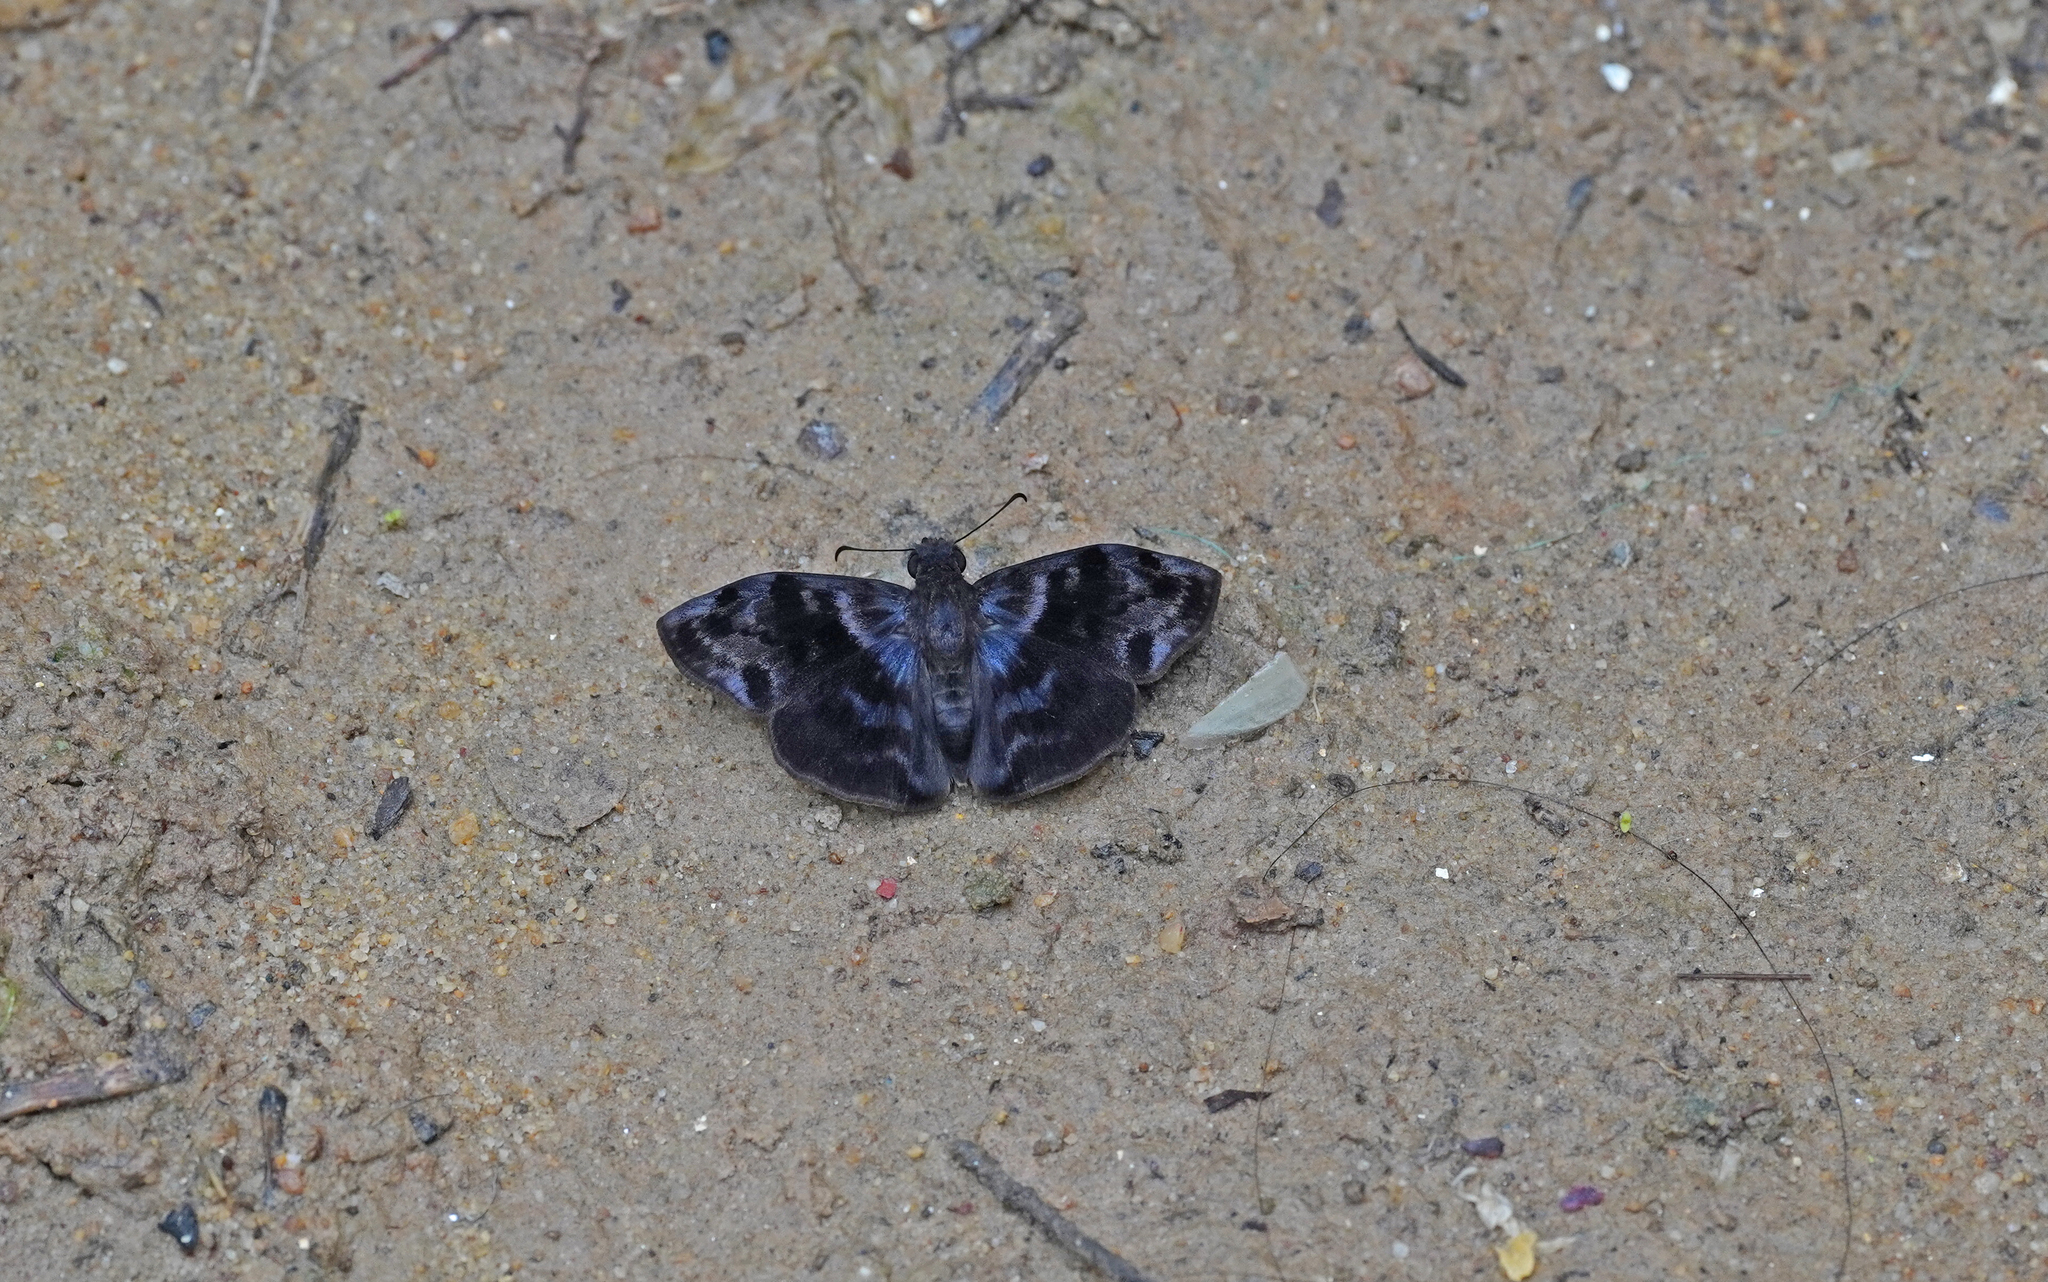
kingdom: Animalia
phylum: Arthropoda
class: Insecta
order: Lepidoptera
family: Hesperiidae
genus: Ebrietas
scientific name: Ebrietas osyris
